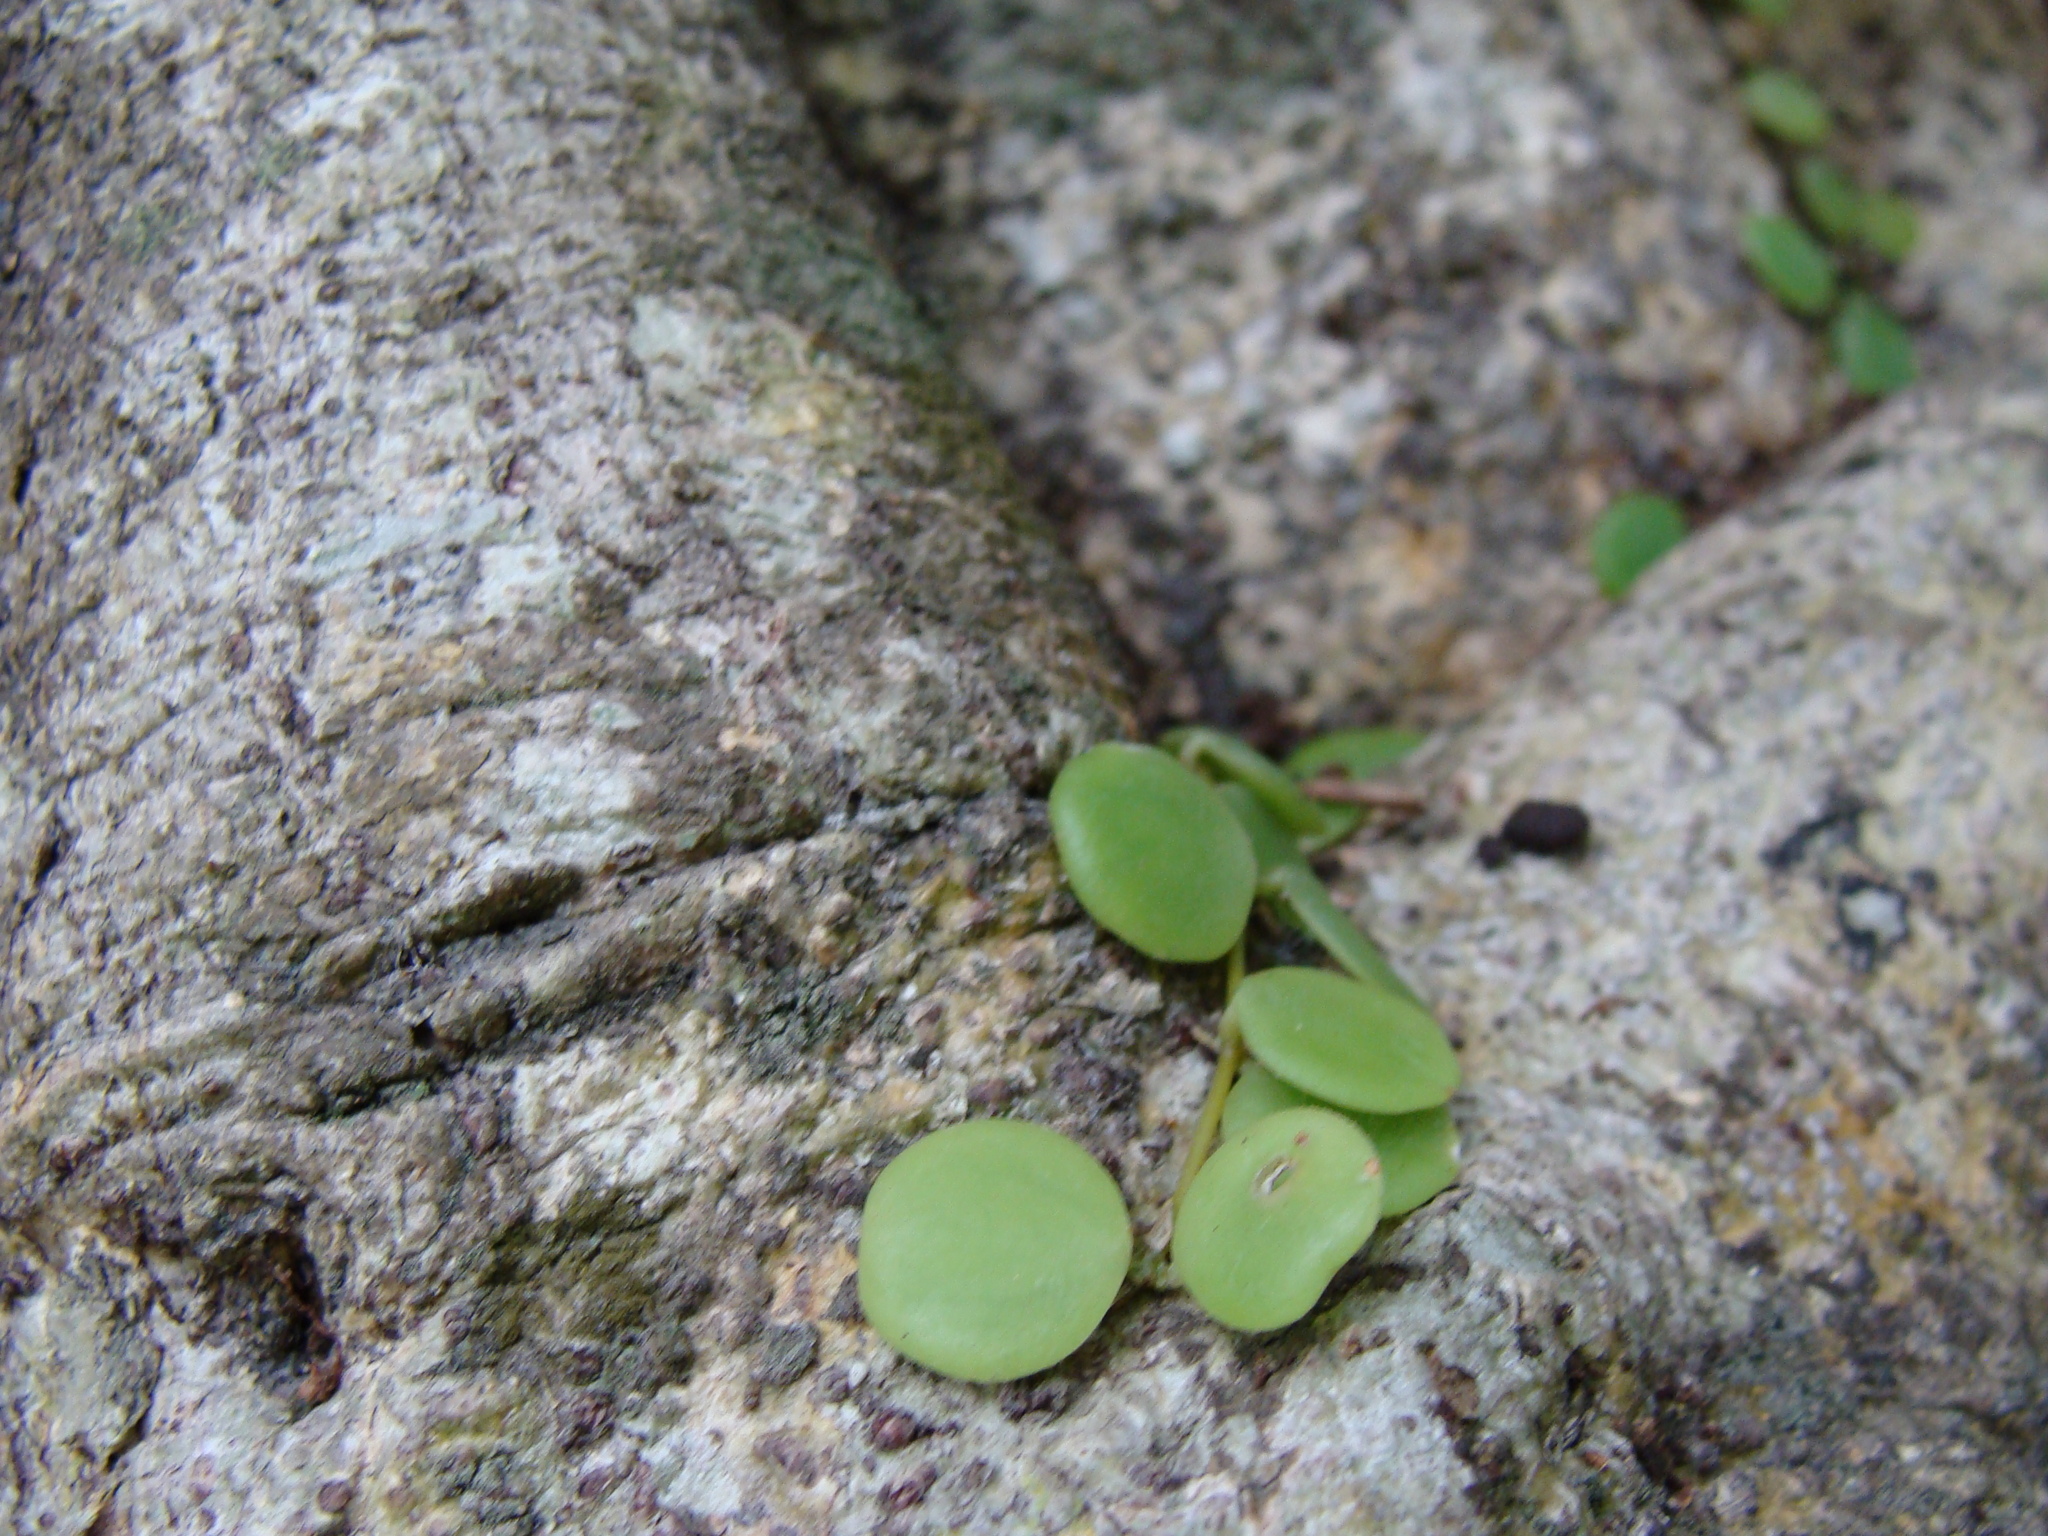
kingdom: Plantae
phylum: Tracheophyta
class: Magnoliopsida
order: Piperales
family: Piperaceae
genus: Peperomia
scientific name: Peperomia cyclophylla
